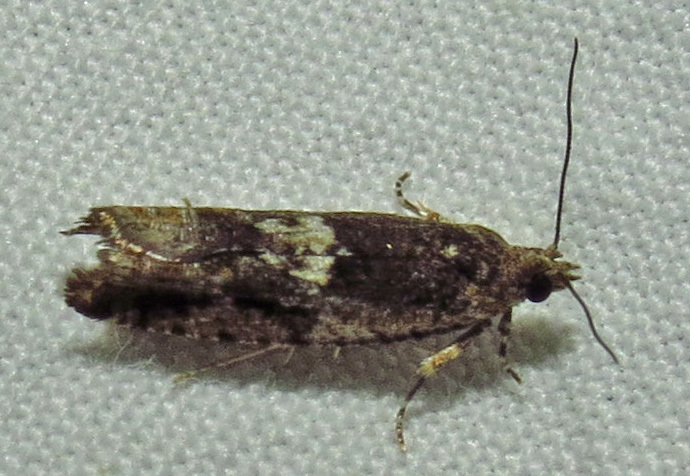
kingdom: Animalia
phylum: Arthropoda
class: Insecta
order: Lepidoptera
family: Tortricidae
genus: Chimoptesis
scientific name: Chimoptesis gerulae
